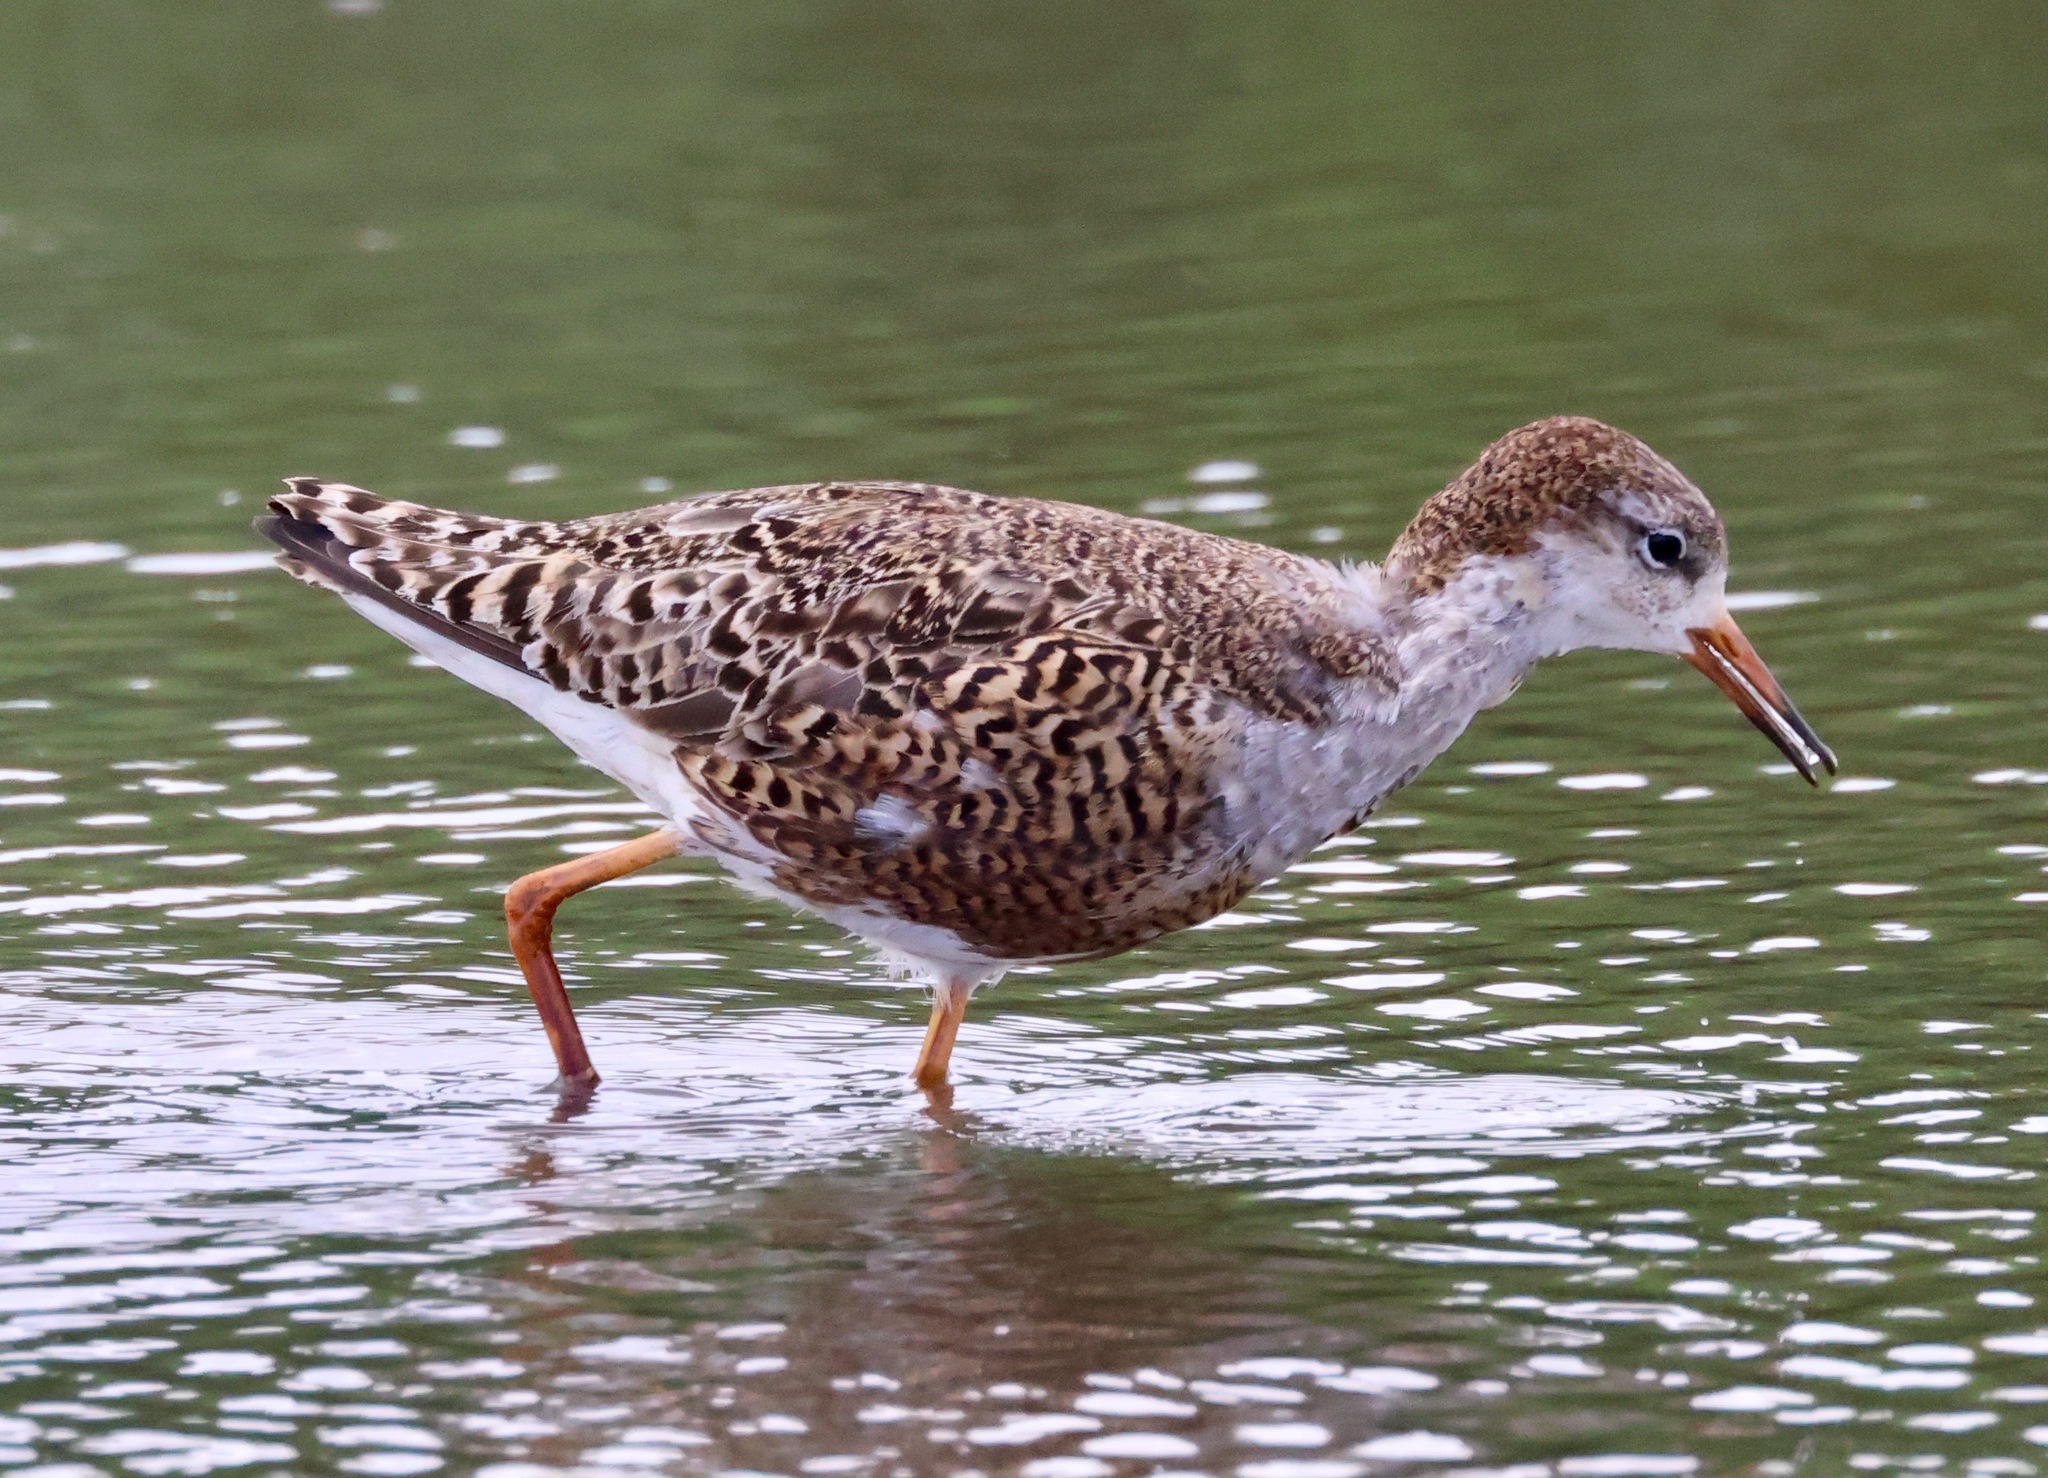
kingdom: Animalia
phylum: Chordata
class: Aves
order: Charadriiformes
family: Scolopacidae
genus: Calidris
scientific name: Calidris pugnax
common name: Ruff
